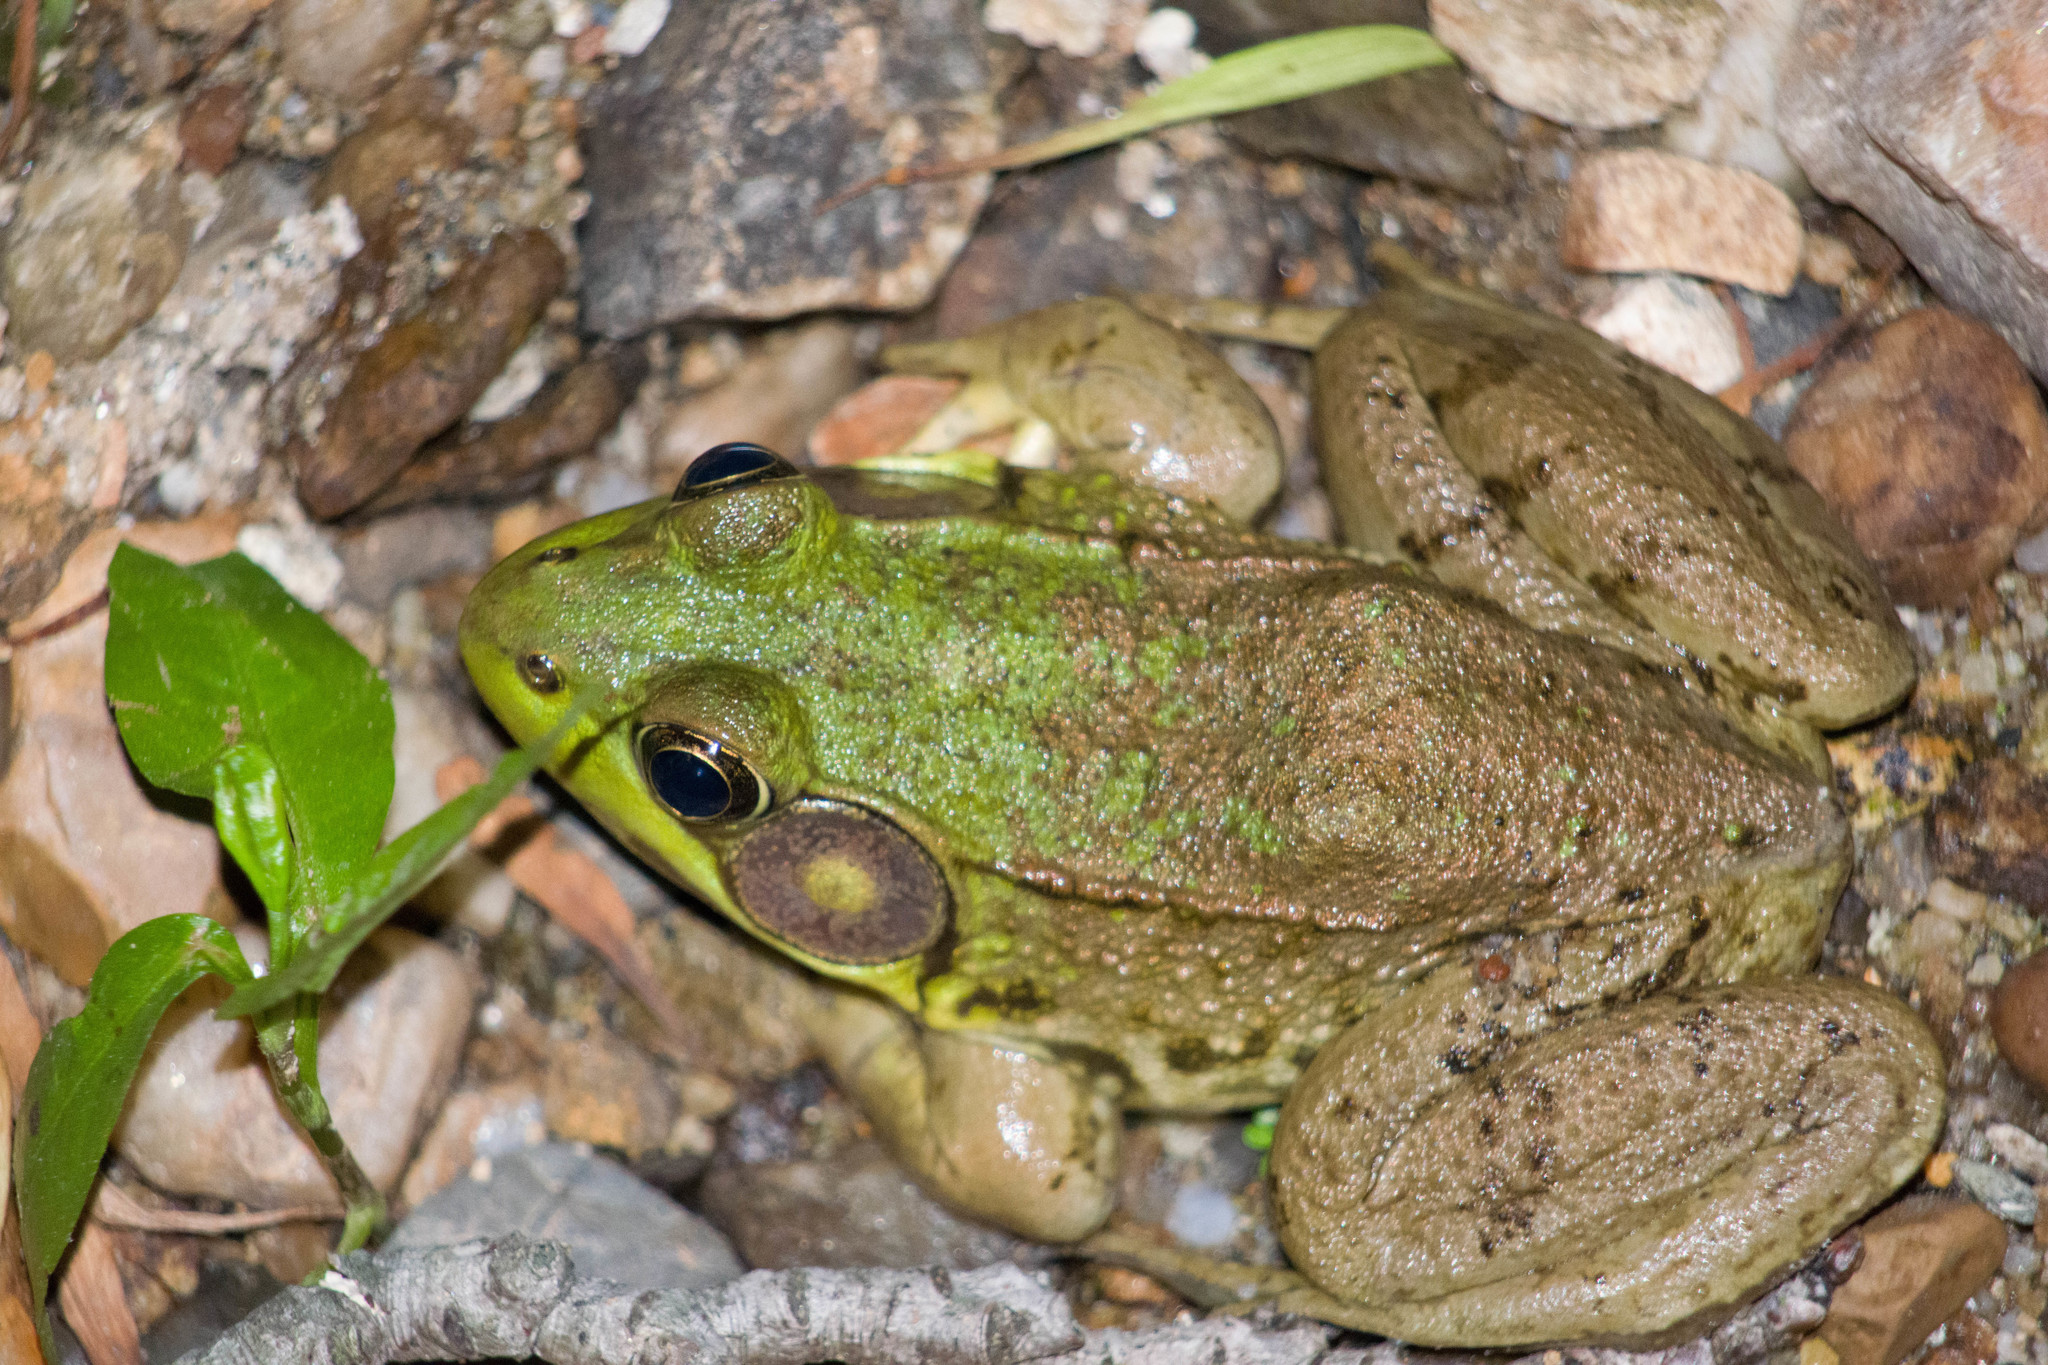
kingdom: Animalia
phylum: Chordata
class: Amphibia
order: Anura
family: Ranidae
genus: Lithobates
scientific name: Lithobates clamitans
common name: Green frog
